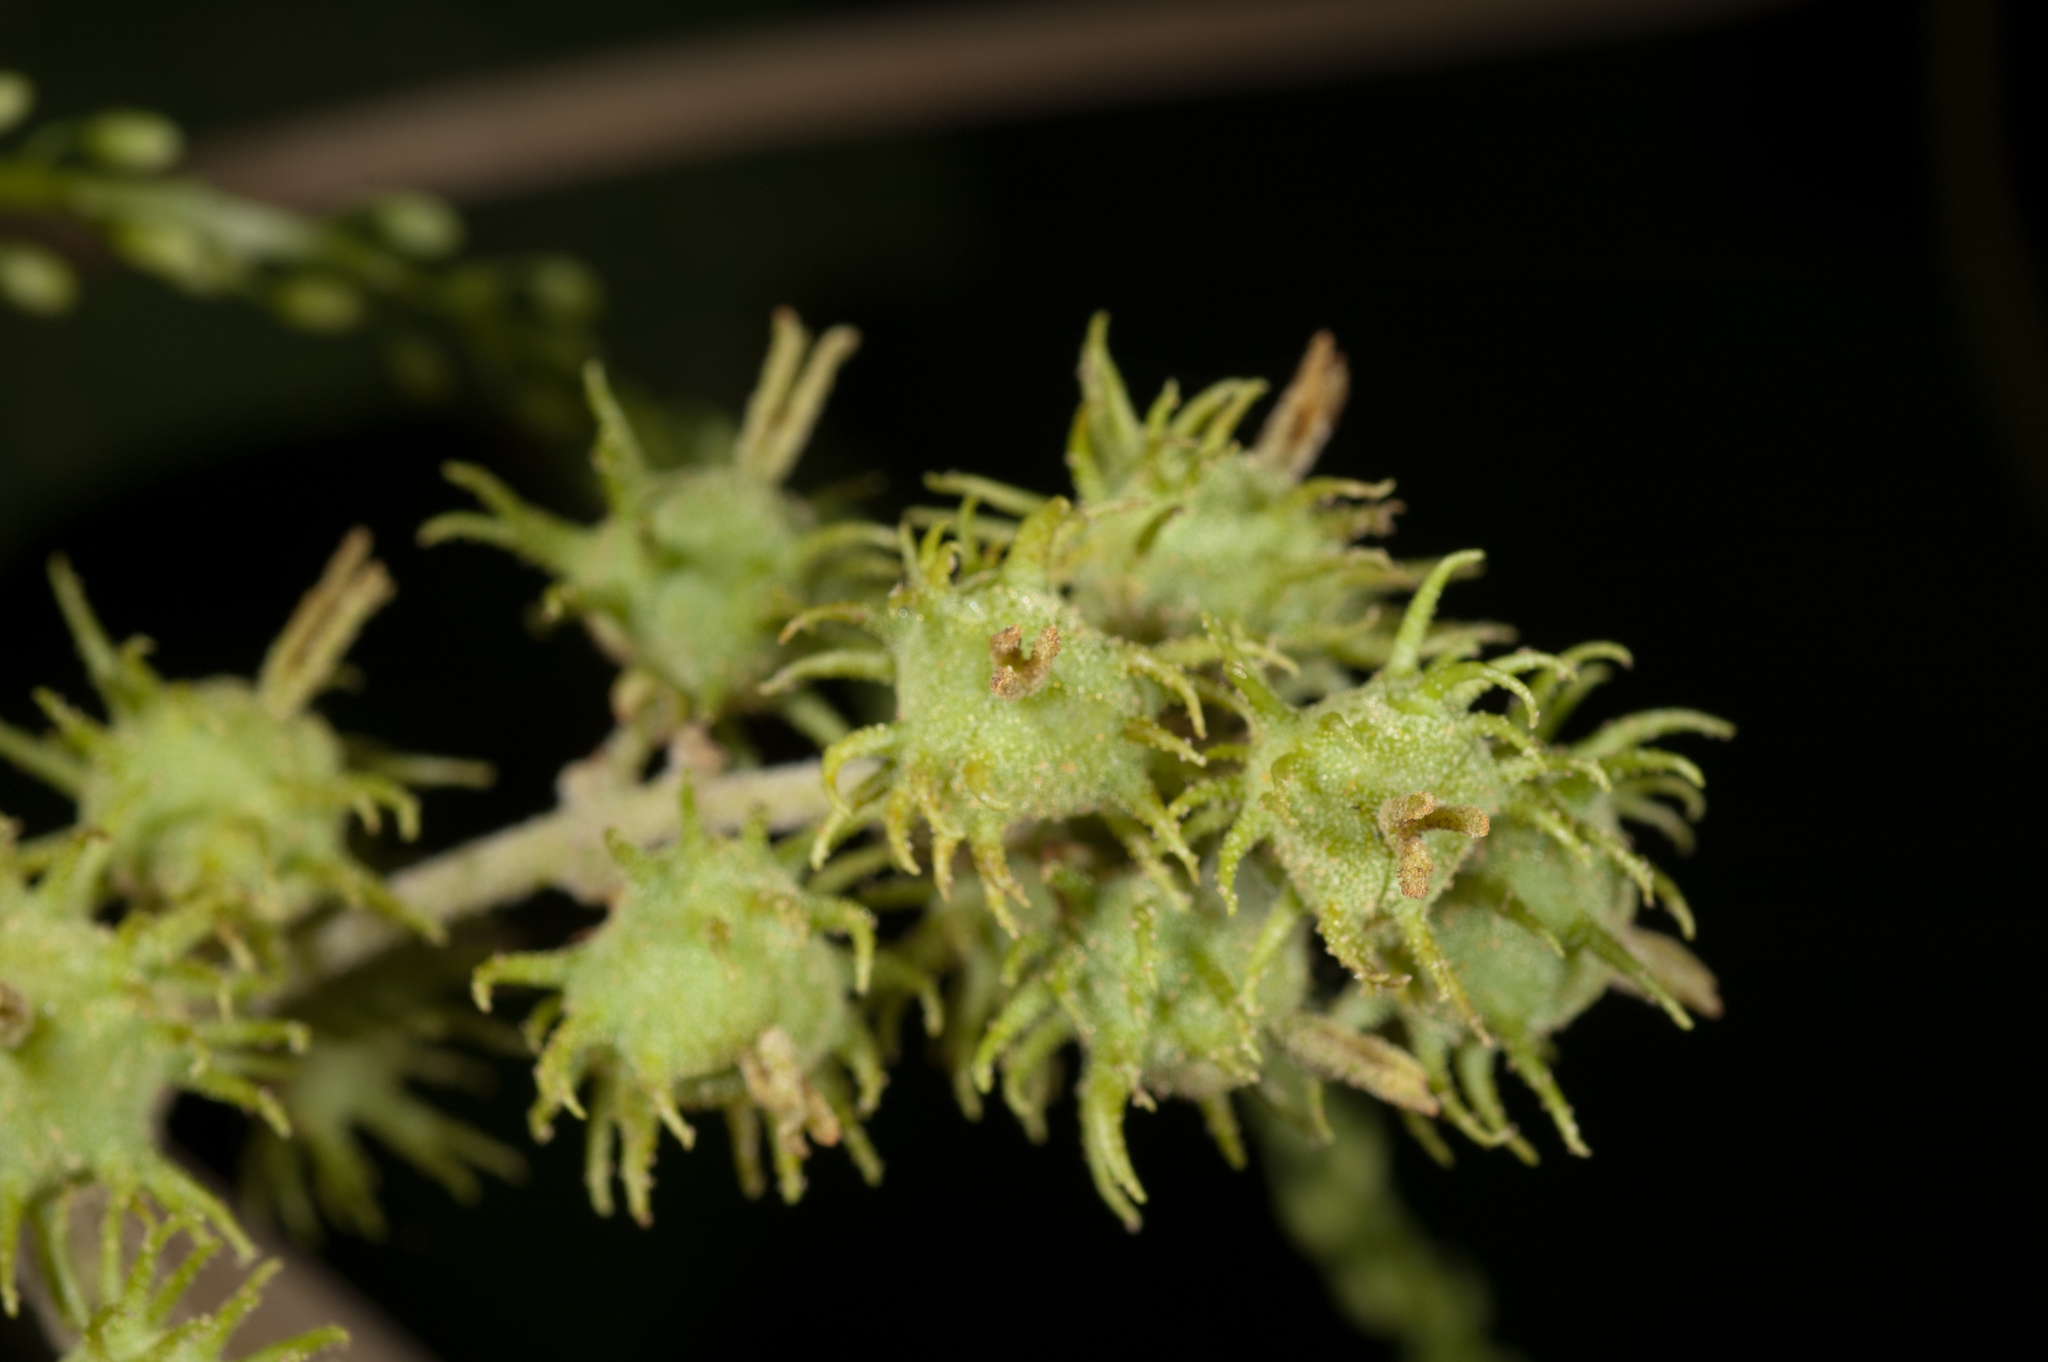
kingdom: Plantae
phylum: Tracheophyta
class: Magnoliopsida
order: Malpighiales
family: Euphorbiaceae
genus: Mallotus
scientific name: Mallotus japonicus
